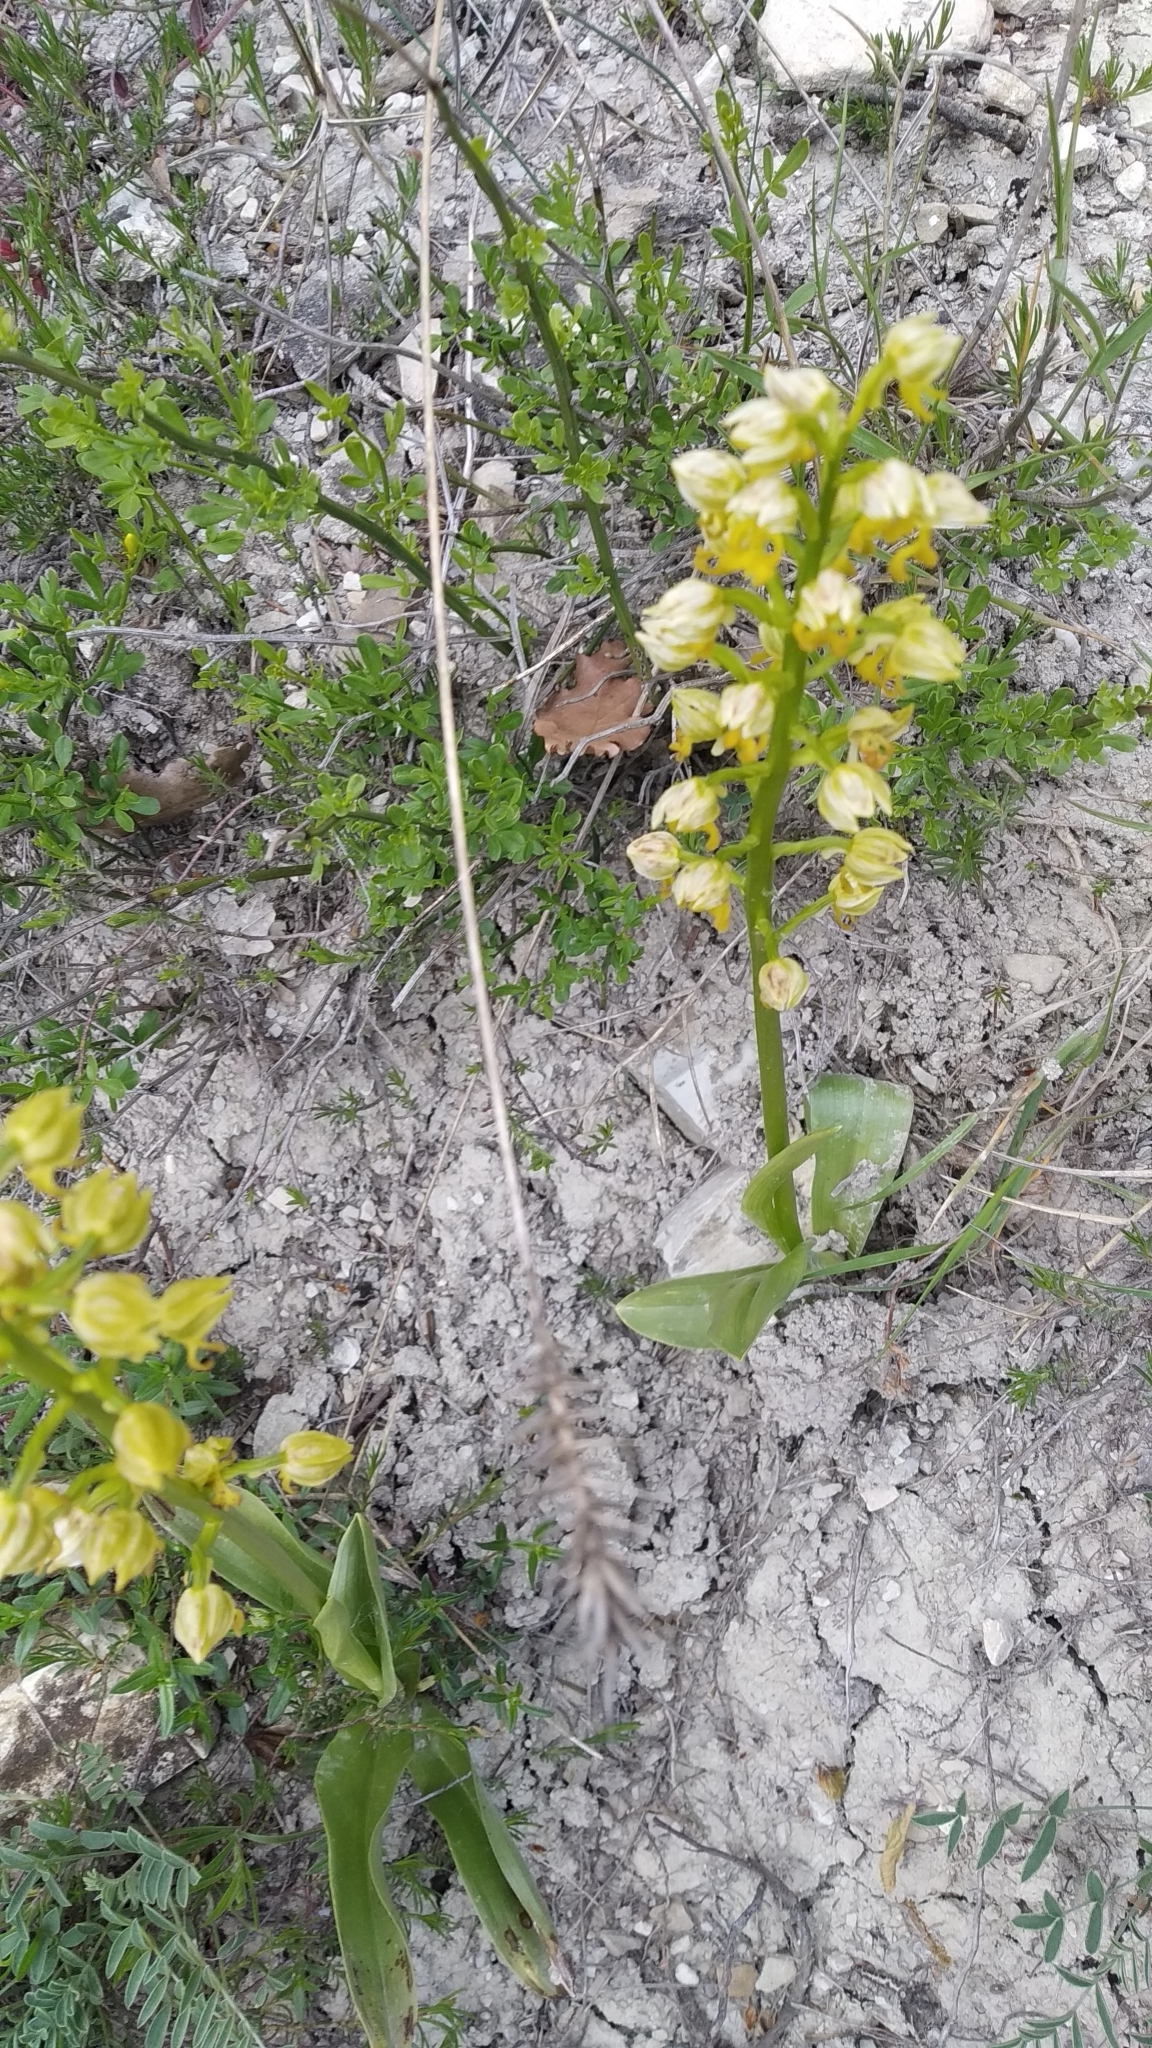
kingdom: Plantae
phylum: Tracheophyta
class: Liliopsida
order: Asparagales
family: Orchidaceae
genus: Orchis
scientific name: Orchis punctulata
